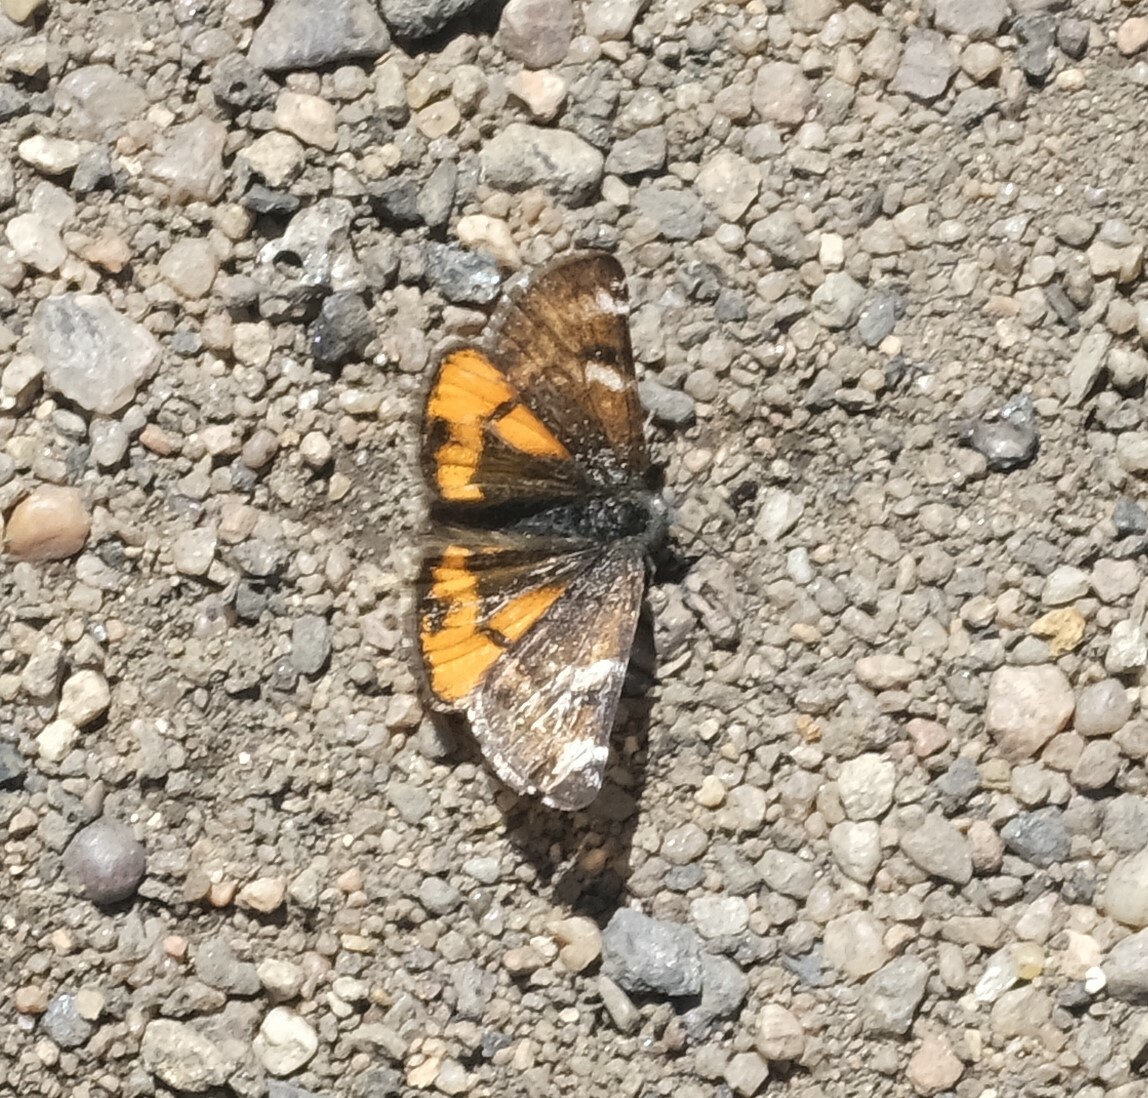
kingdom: Animalia
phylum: Arthropoda
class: Insecta
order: Lepidoptera
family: Geometridae
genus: Archiearis
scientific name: Archiearis infans
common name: First born geometer
